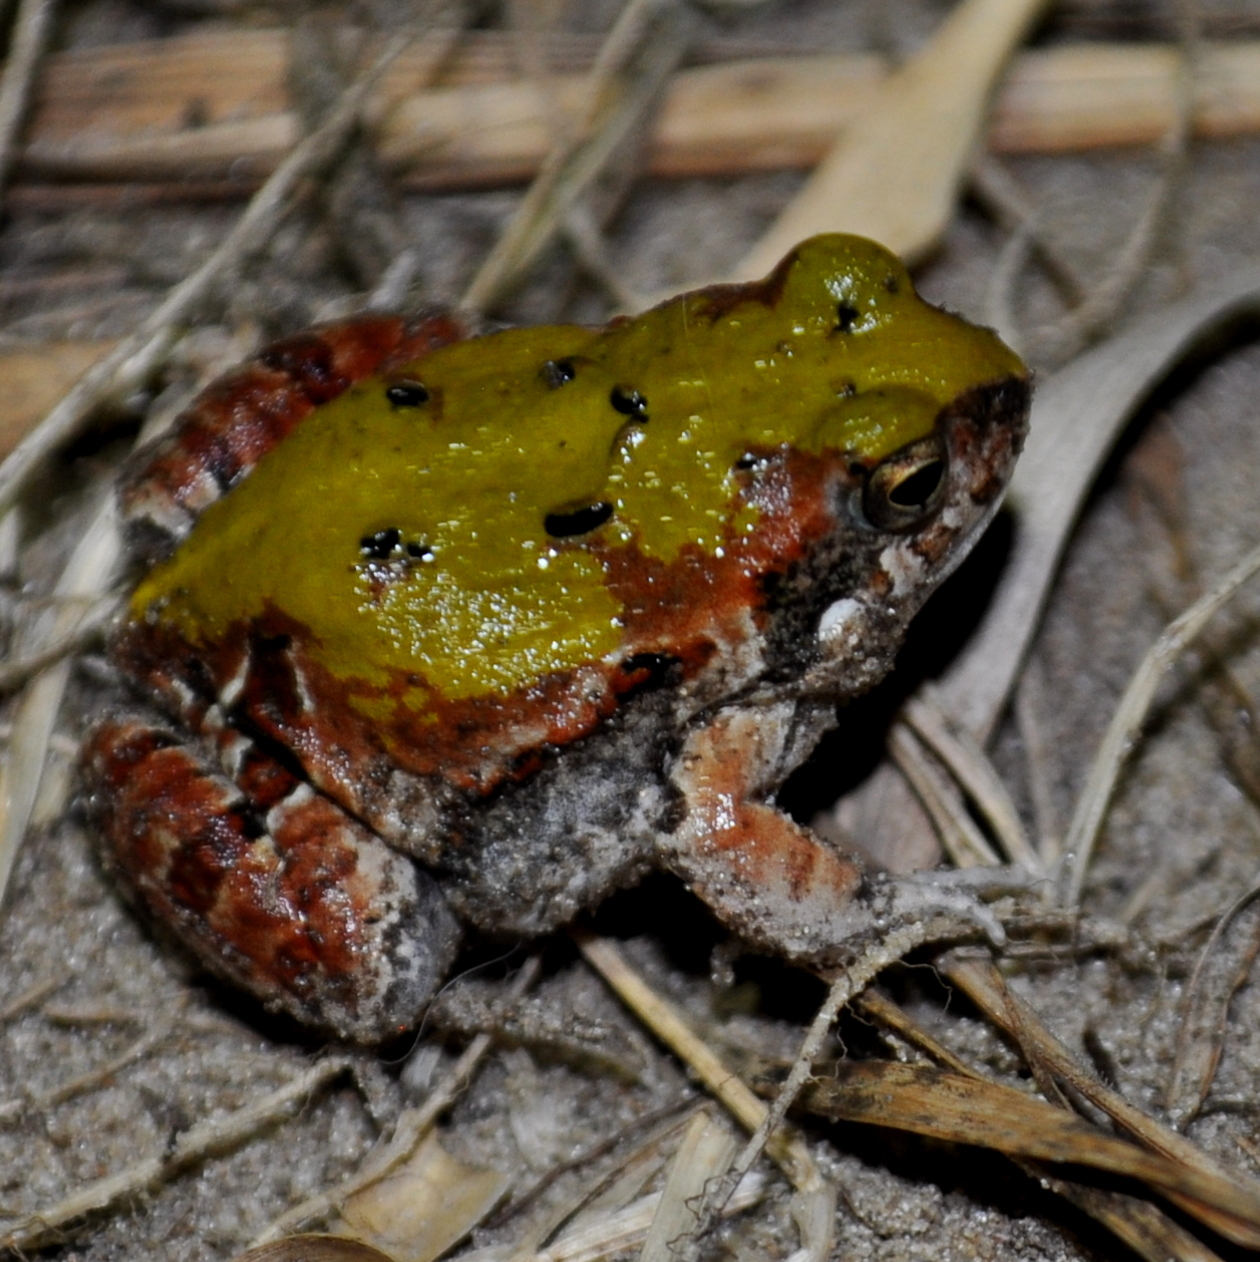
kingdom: Animalia
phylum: Chordata
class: Amphibia
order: Anura
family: Leptodactylidae
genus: Physalaemus
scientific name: Physalaemus biligonigerus
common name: Weeping frog
